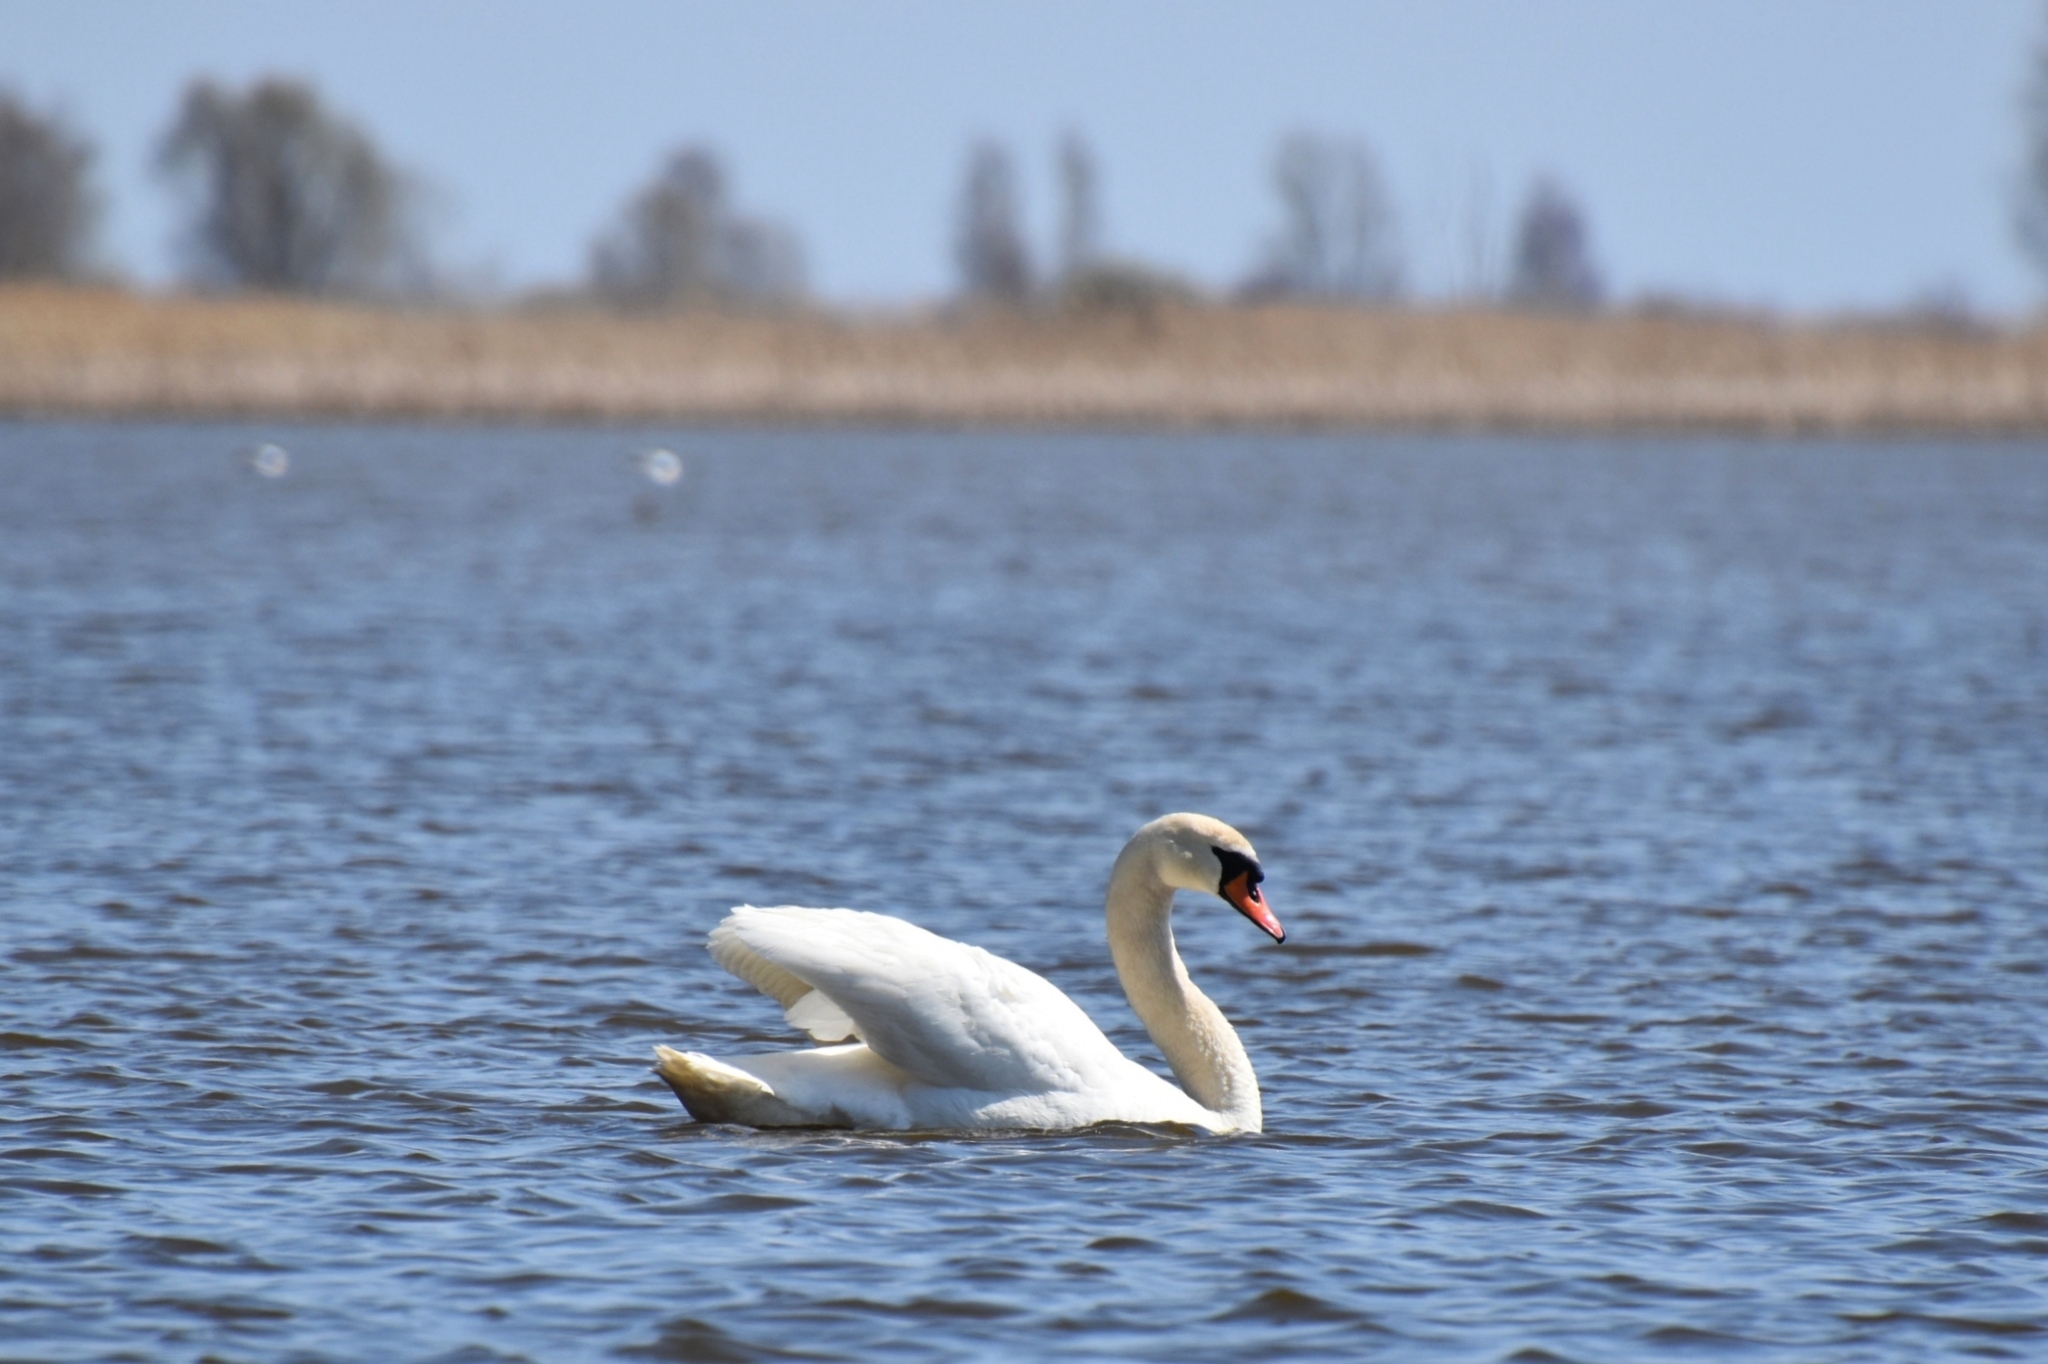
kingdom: Animalia
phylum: Chordata
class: Aves
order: Anseriformes
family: Anatidae
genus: Cygnus
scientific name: Cygnus olor
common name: Mute swan
